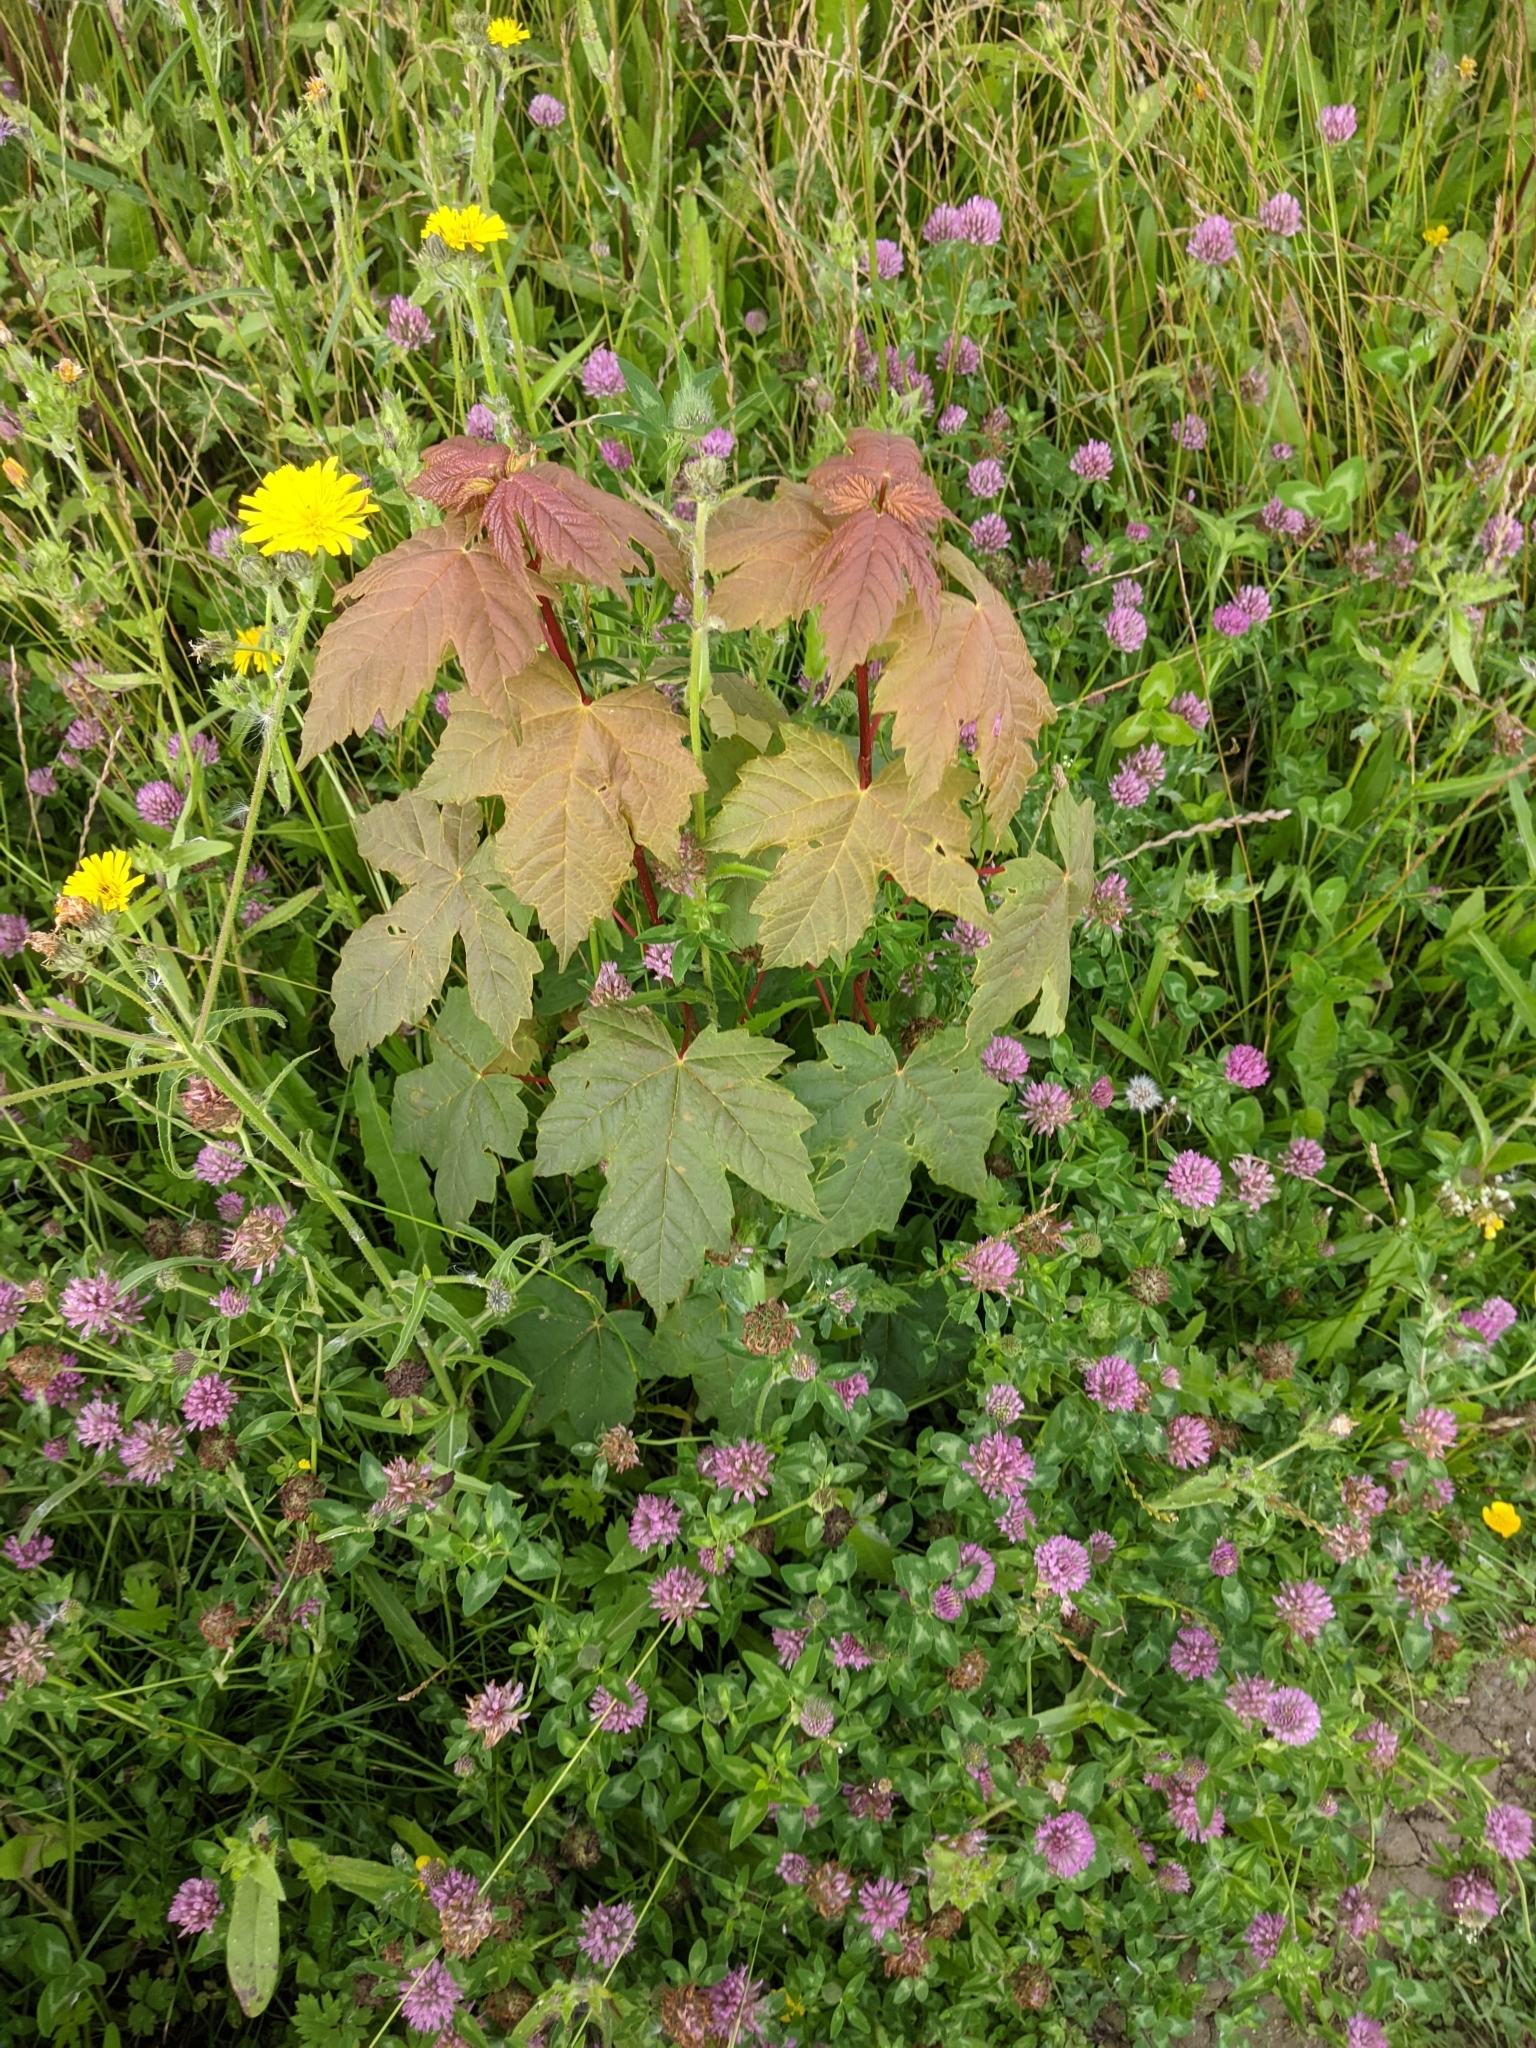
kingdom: Plantae
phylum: Tracheophyta
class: Magnoliopsida
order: Sapindales
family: Sapindaceae
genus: Acer
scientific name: Acer pseudoplatanus
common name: Sycamore
